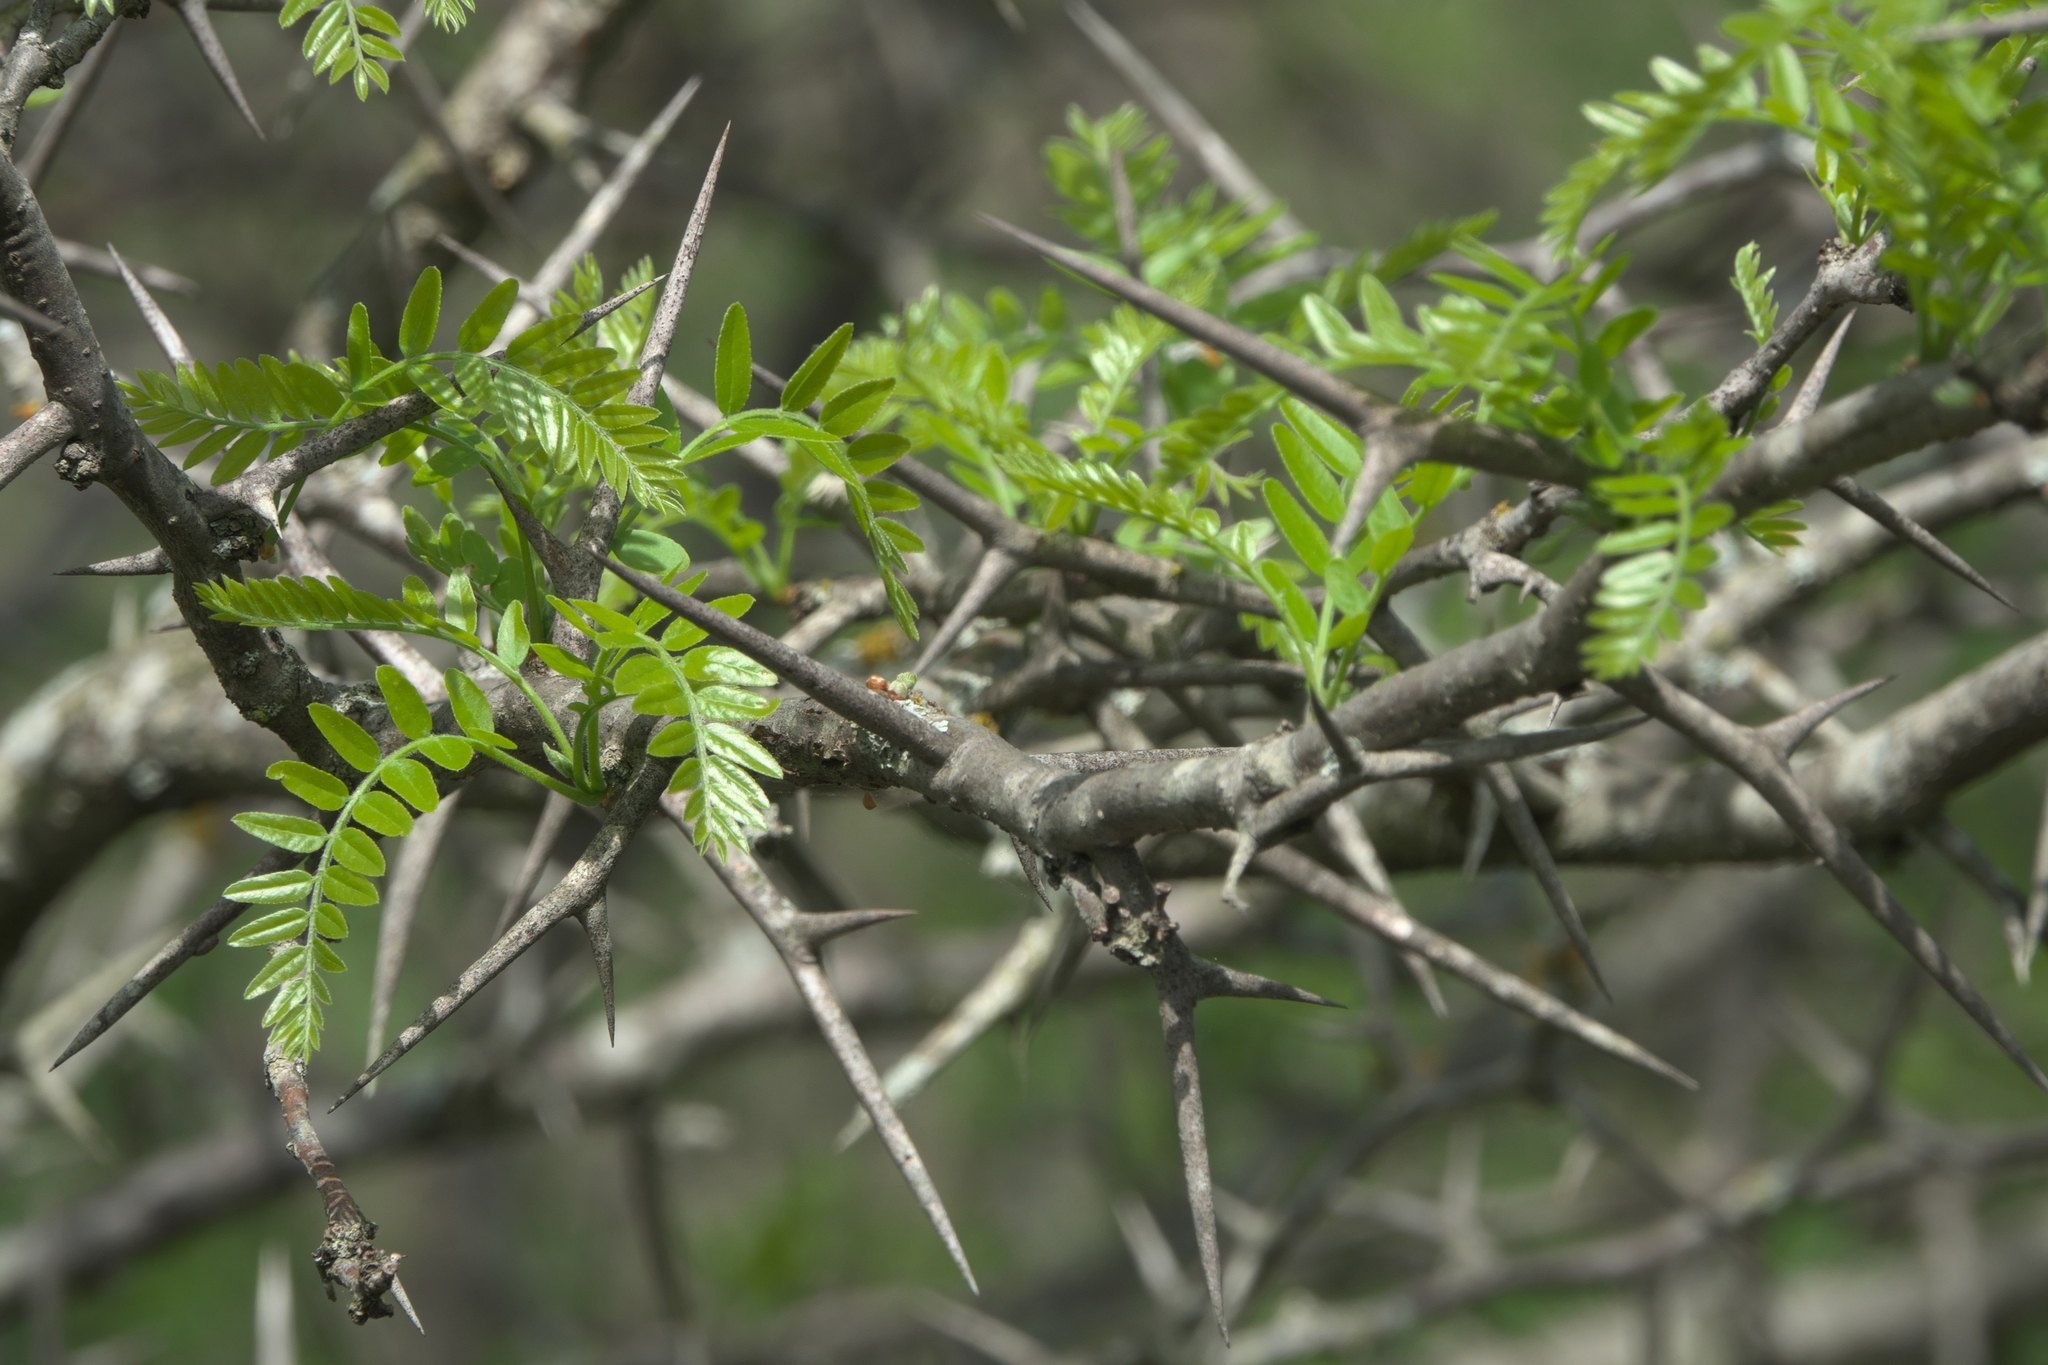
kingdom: Plantae
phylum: Tracheophyta
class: Magnoliopsida
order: Fabales
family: Fabaceae
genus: Gleditsia
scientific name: Gleditsia triacanthos
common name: Common honeylocust
